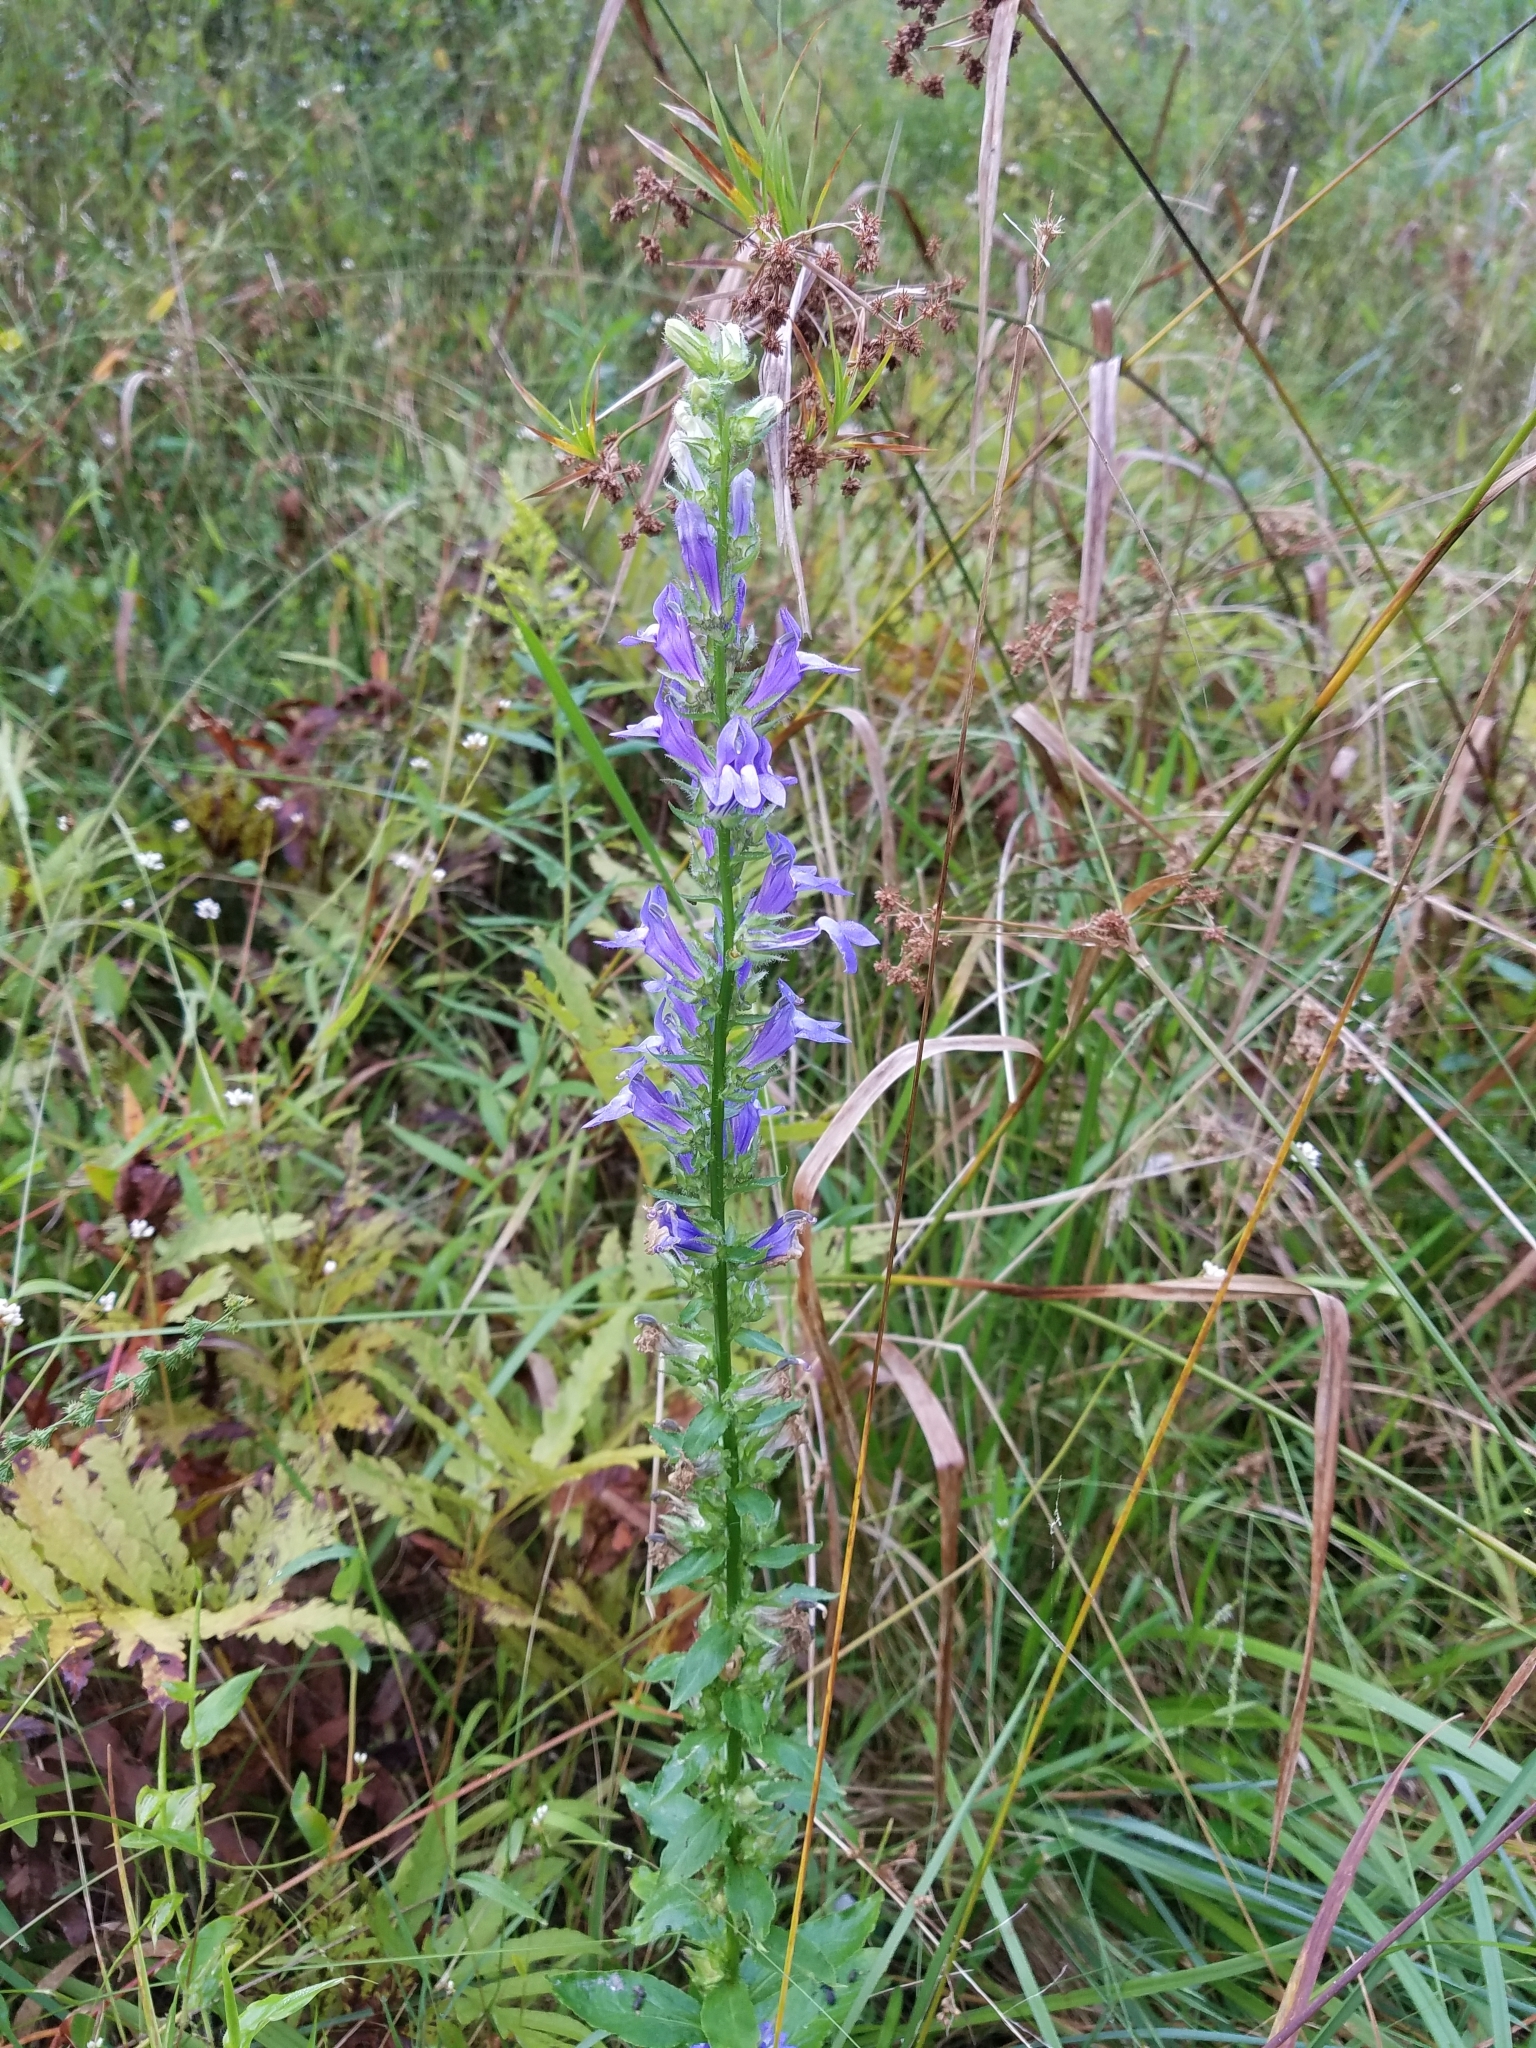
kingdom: Plantae
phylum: Tracheophyta
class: Magnoliopsida
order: Asterales
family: Campanulaceae
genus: Lobelia
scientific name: Lobelia siphilitica
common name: Great lobelia
